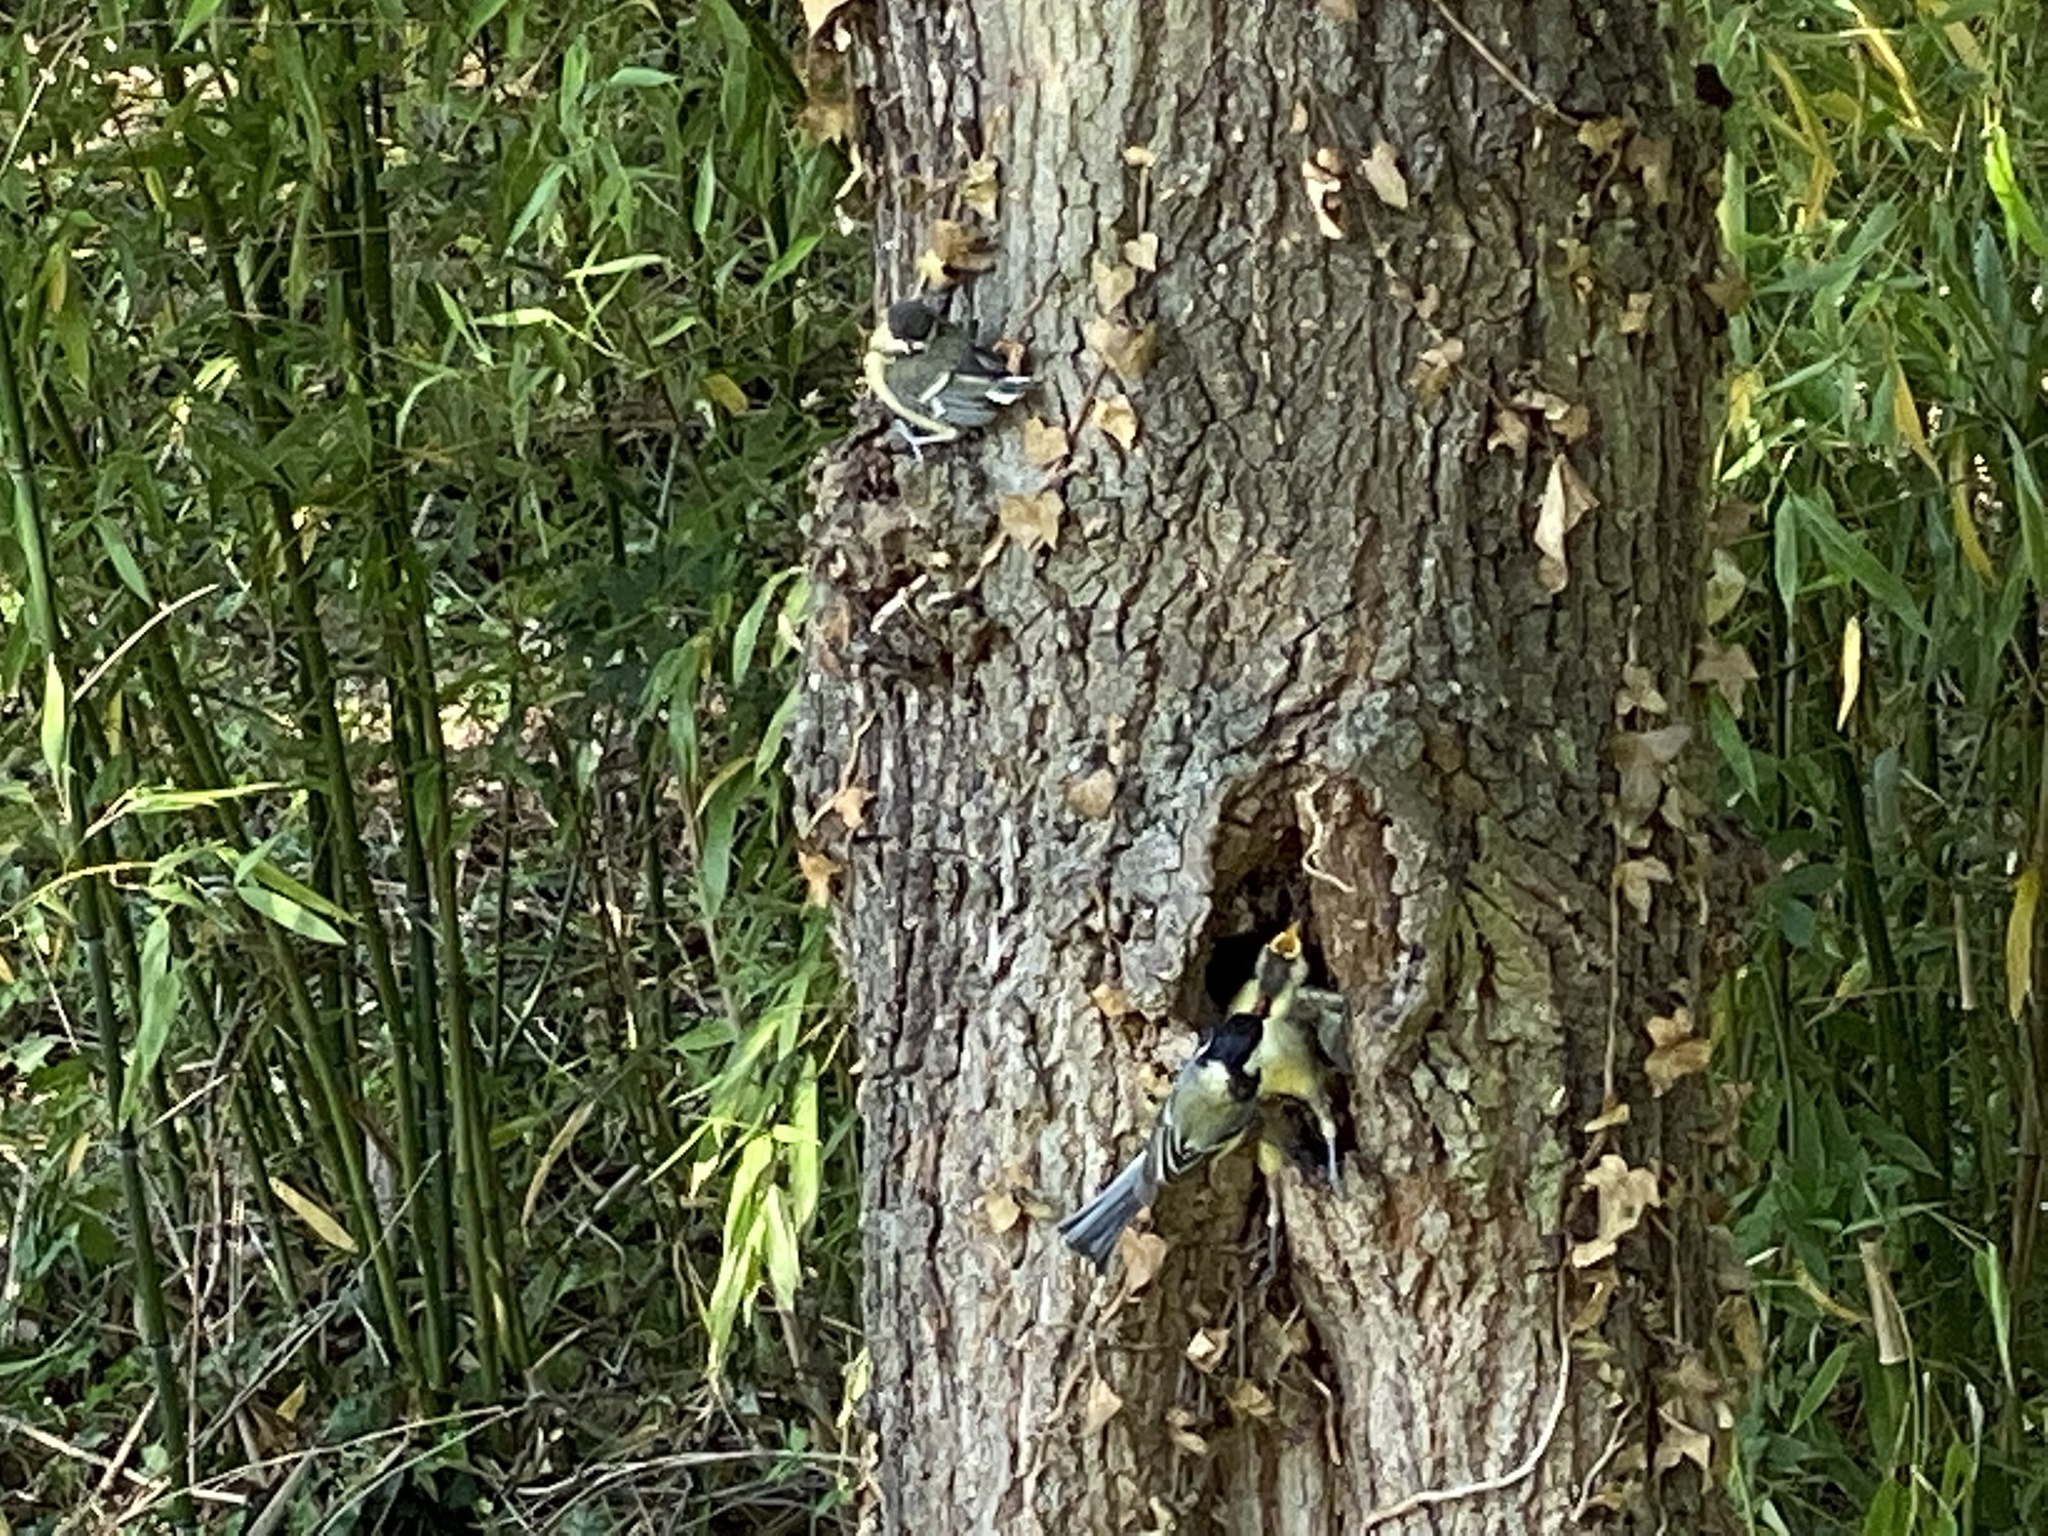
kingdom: Animalia
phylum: Chordata
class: Aves
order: Passeriformes
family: Paridae
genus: Parus
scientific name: Parus major
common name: Great tit
